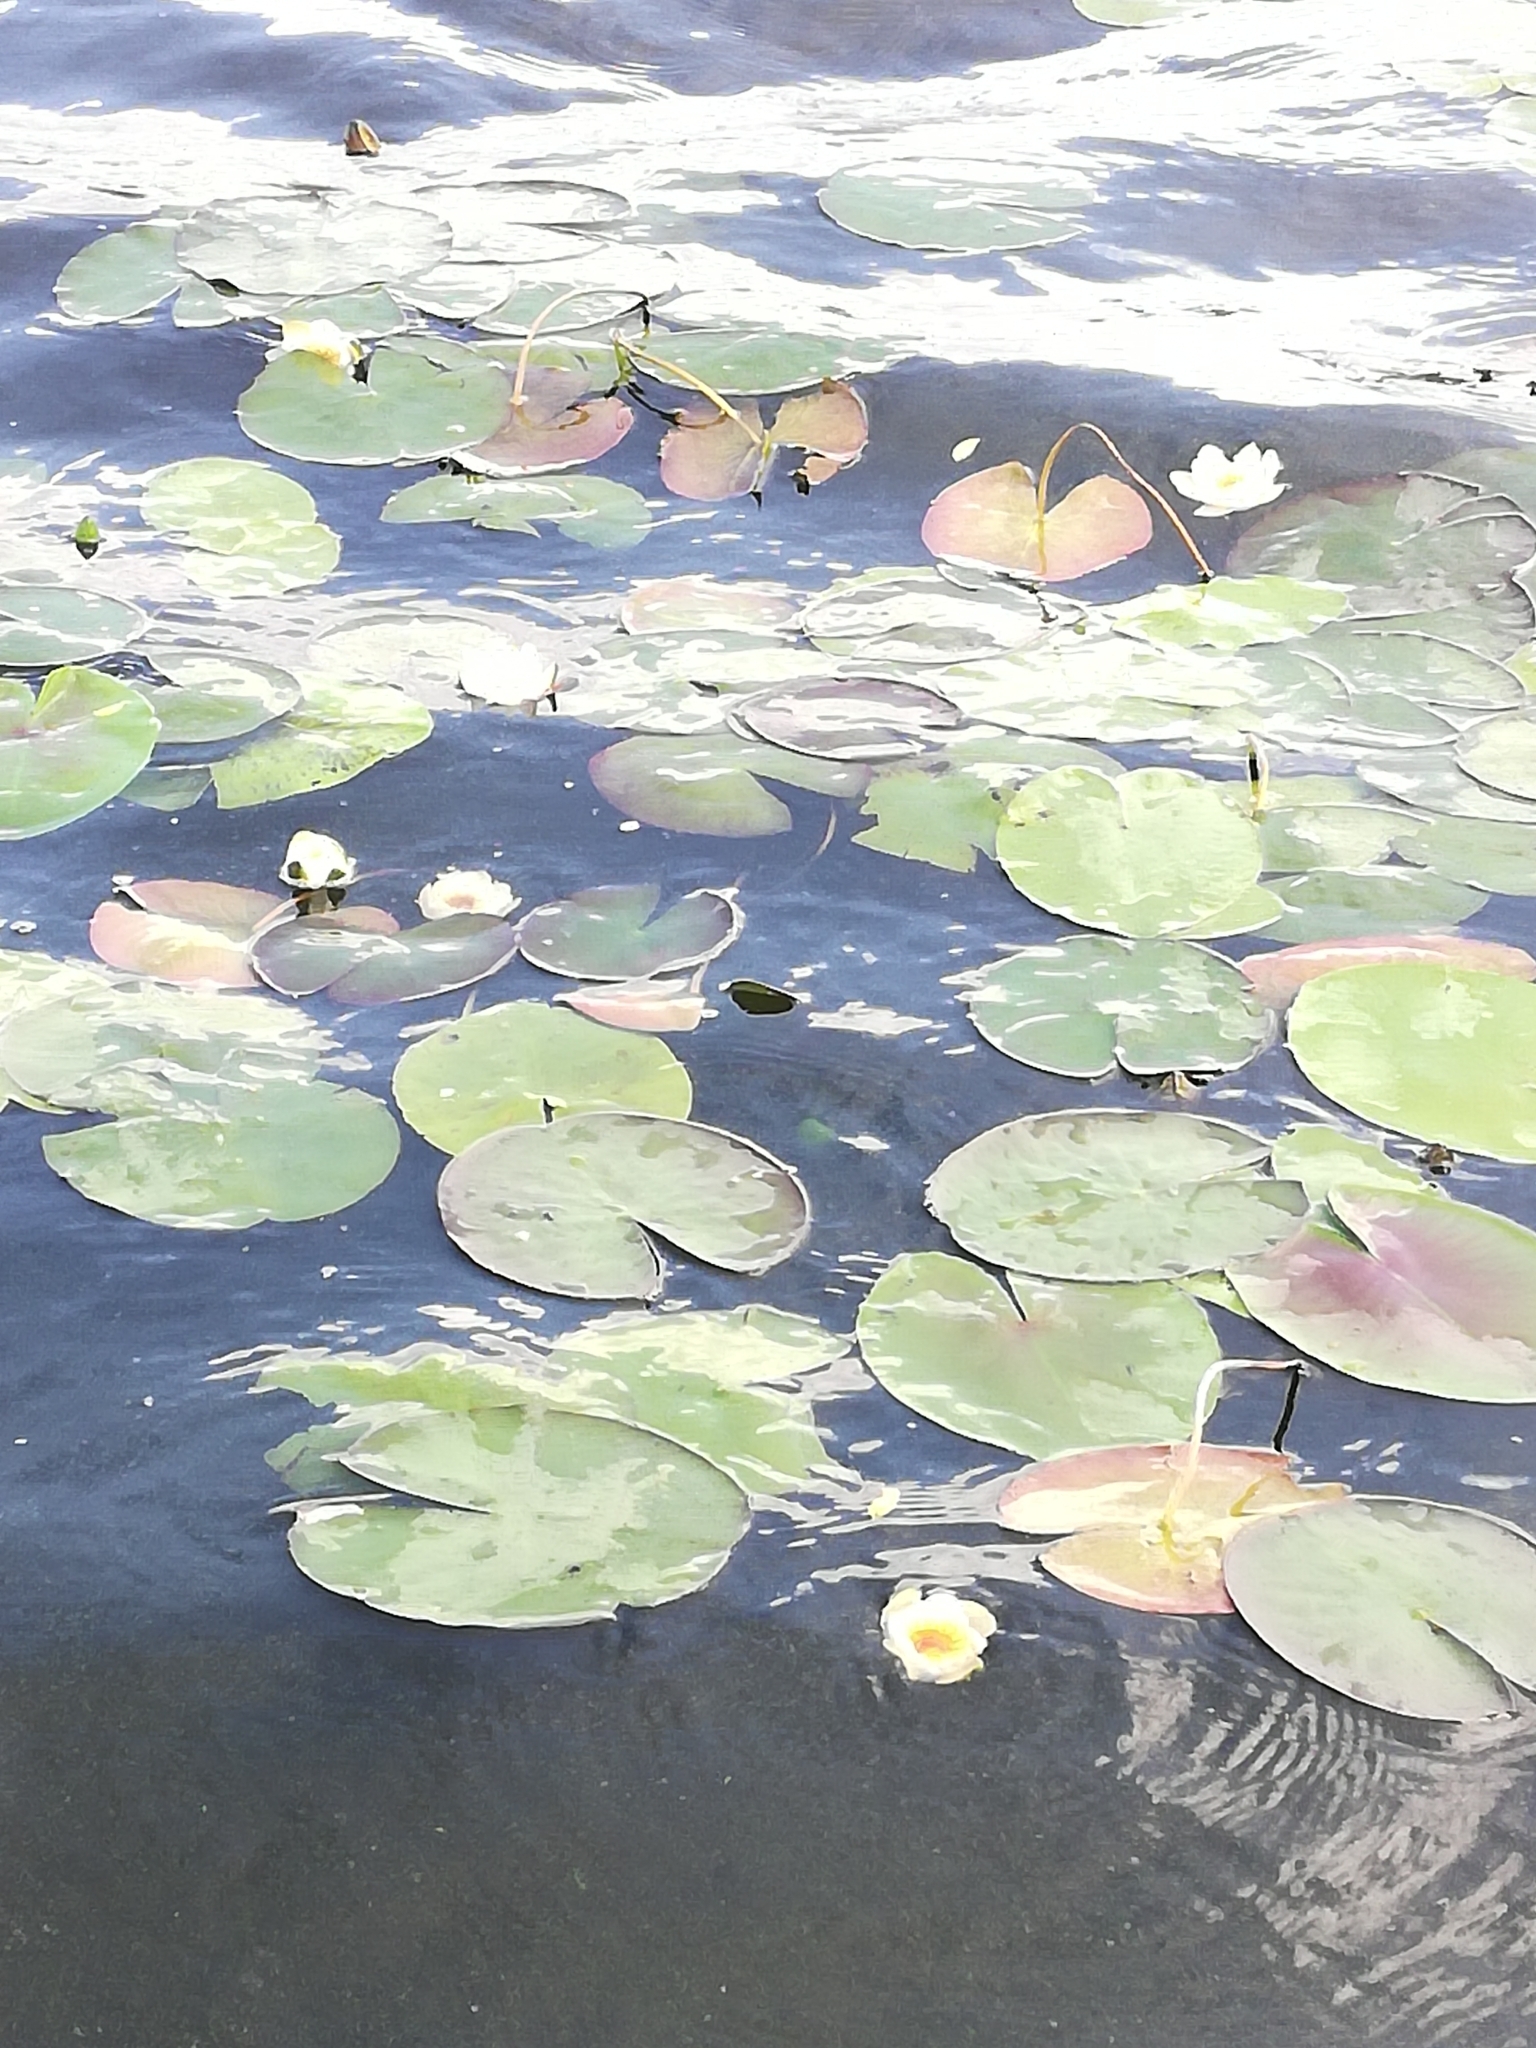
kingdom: Plantae
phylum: Tracheophyta
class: Magnoliopsida
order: Nymphaeales
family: Nymphaeaceae
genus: Nymphaea
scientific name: Nymphaea candida
